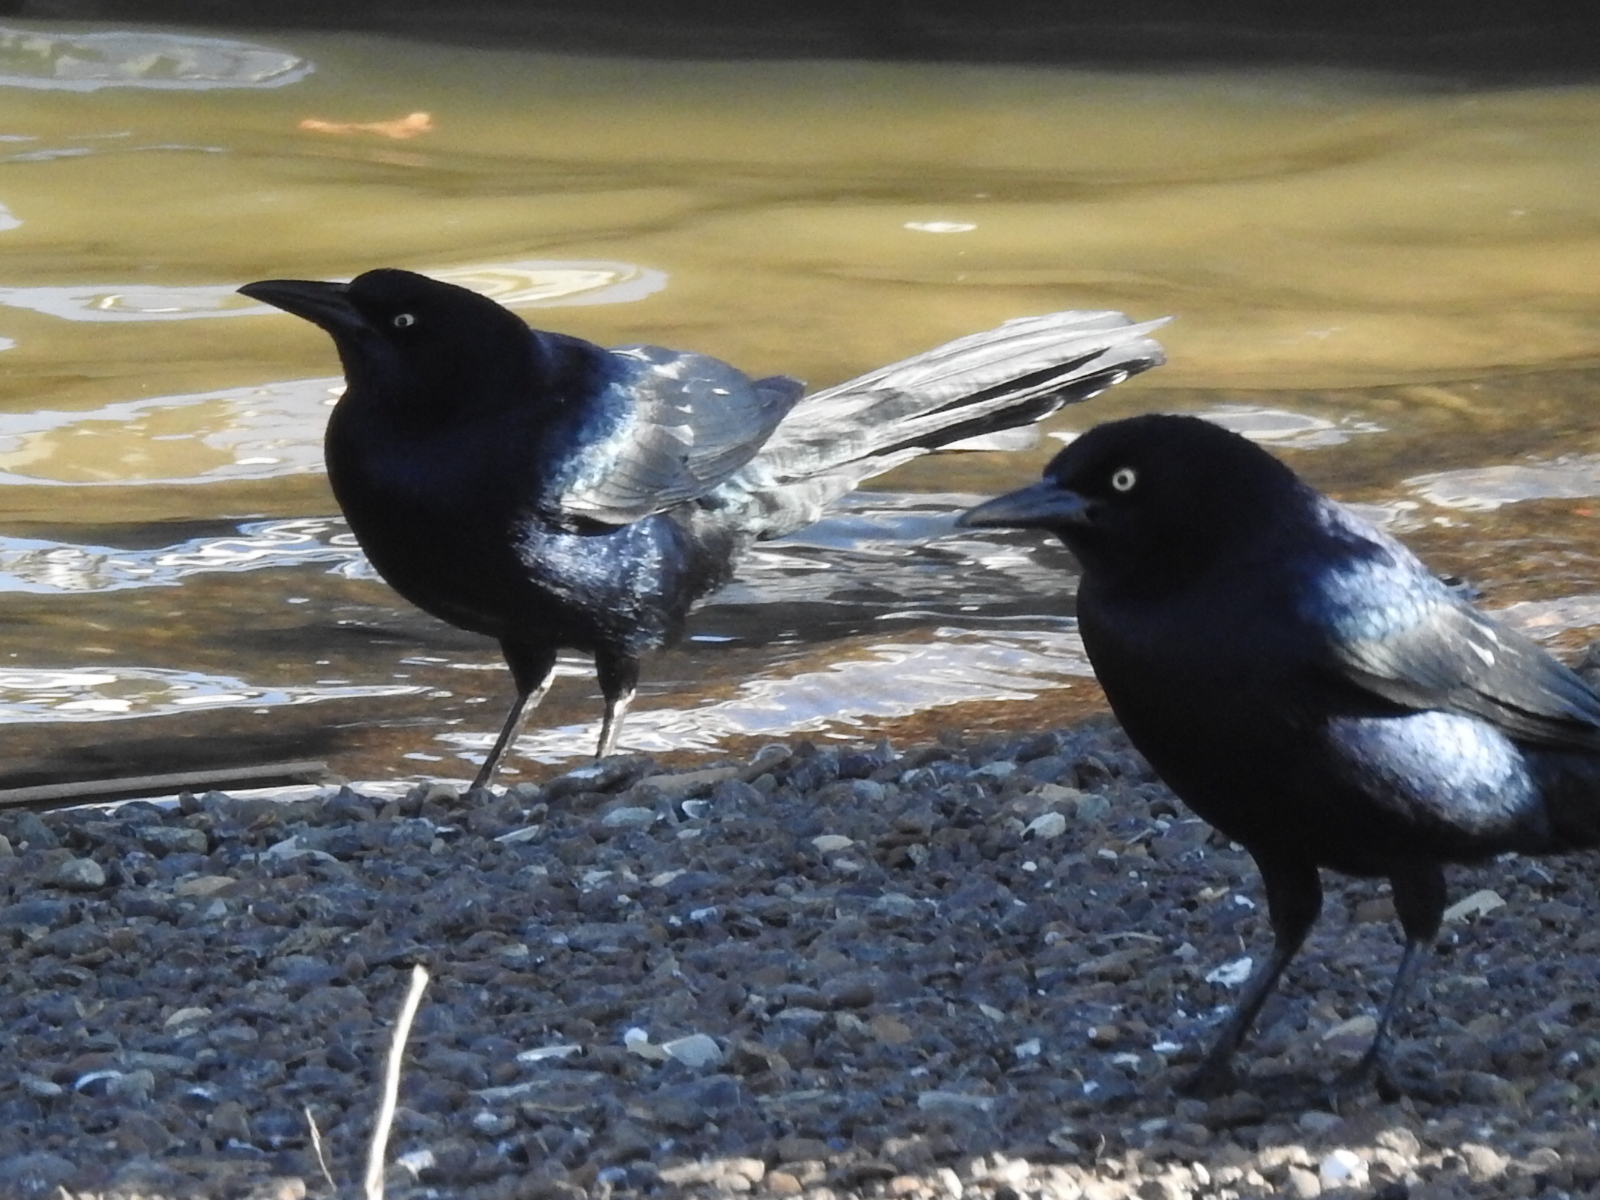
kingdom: Animalia
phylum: Chordata
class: Aves
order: Passeriformes
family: Icteridae
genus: Quiscalus
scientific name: Quiscalus mexicanus
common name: Great-tailed grackle
